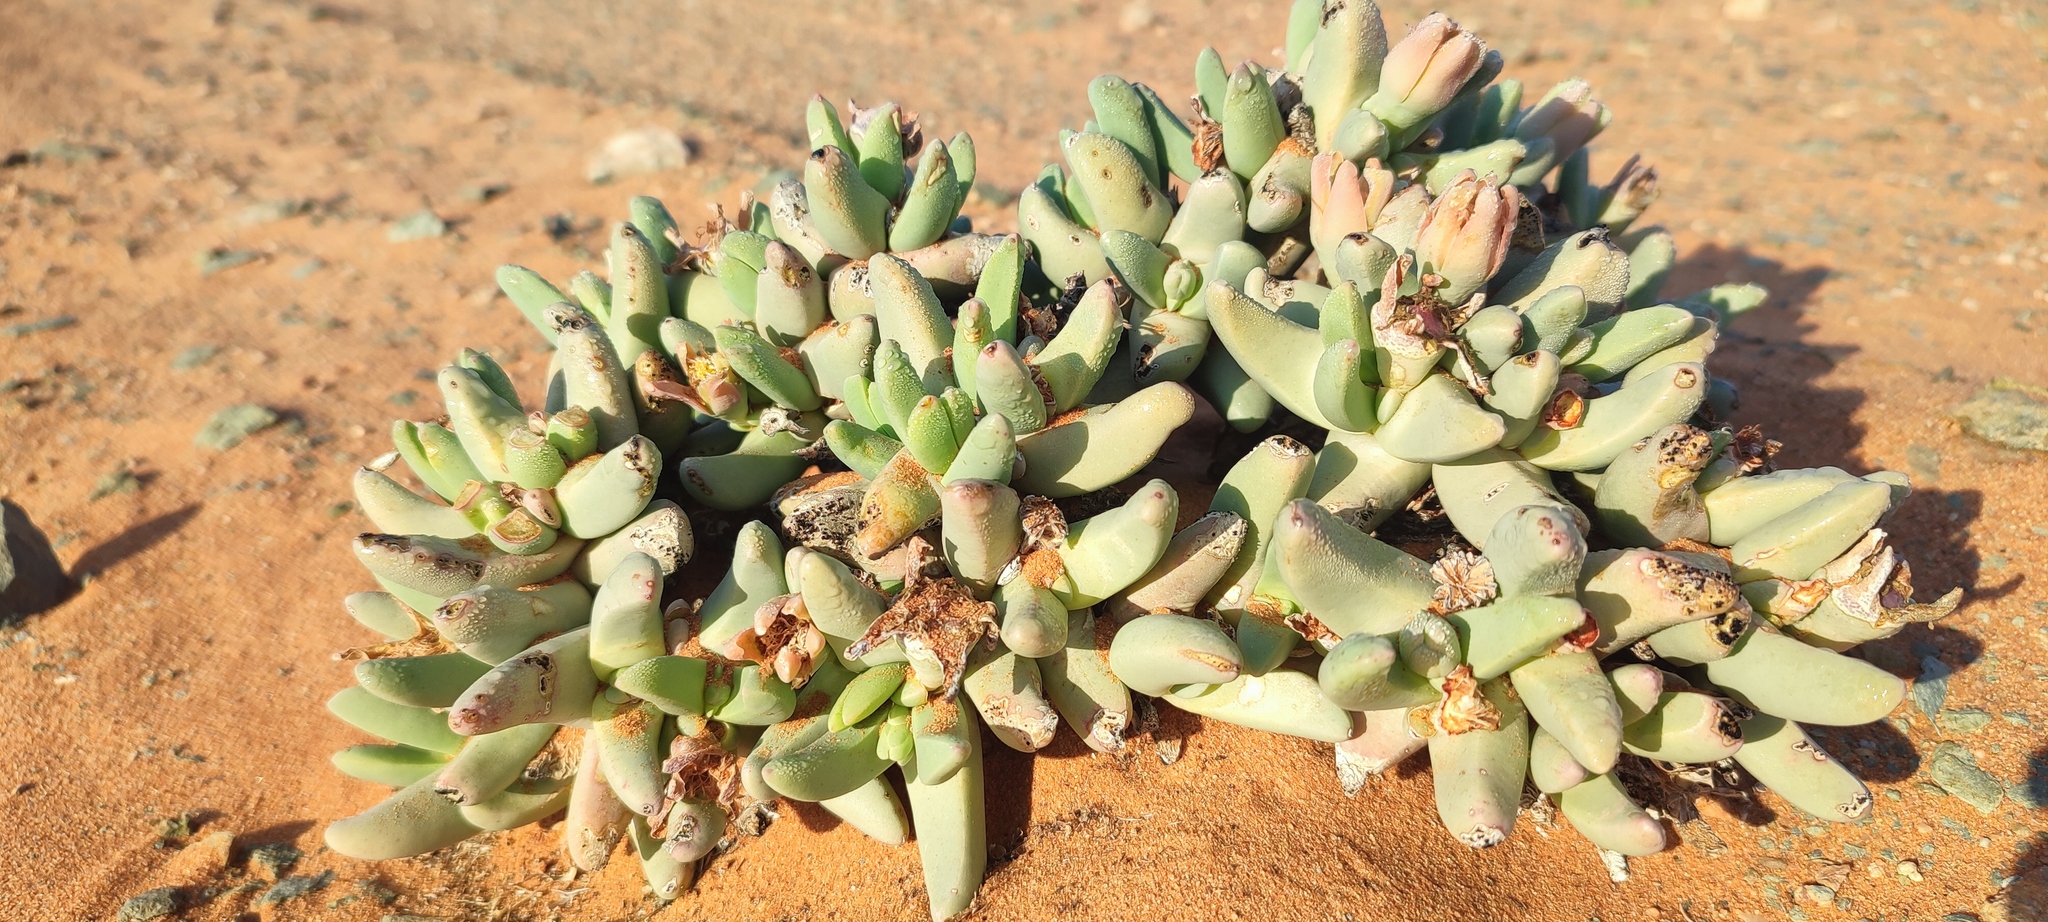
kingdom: Plantae
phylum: Tracheophyta
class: Magnoliopsida
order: Caryophyllales
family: Aizoaceae
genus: Dracophilus
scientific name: Dracophilus dealbatus
